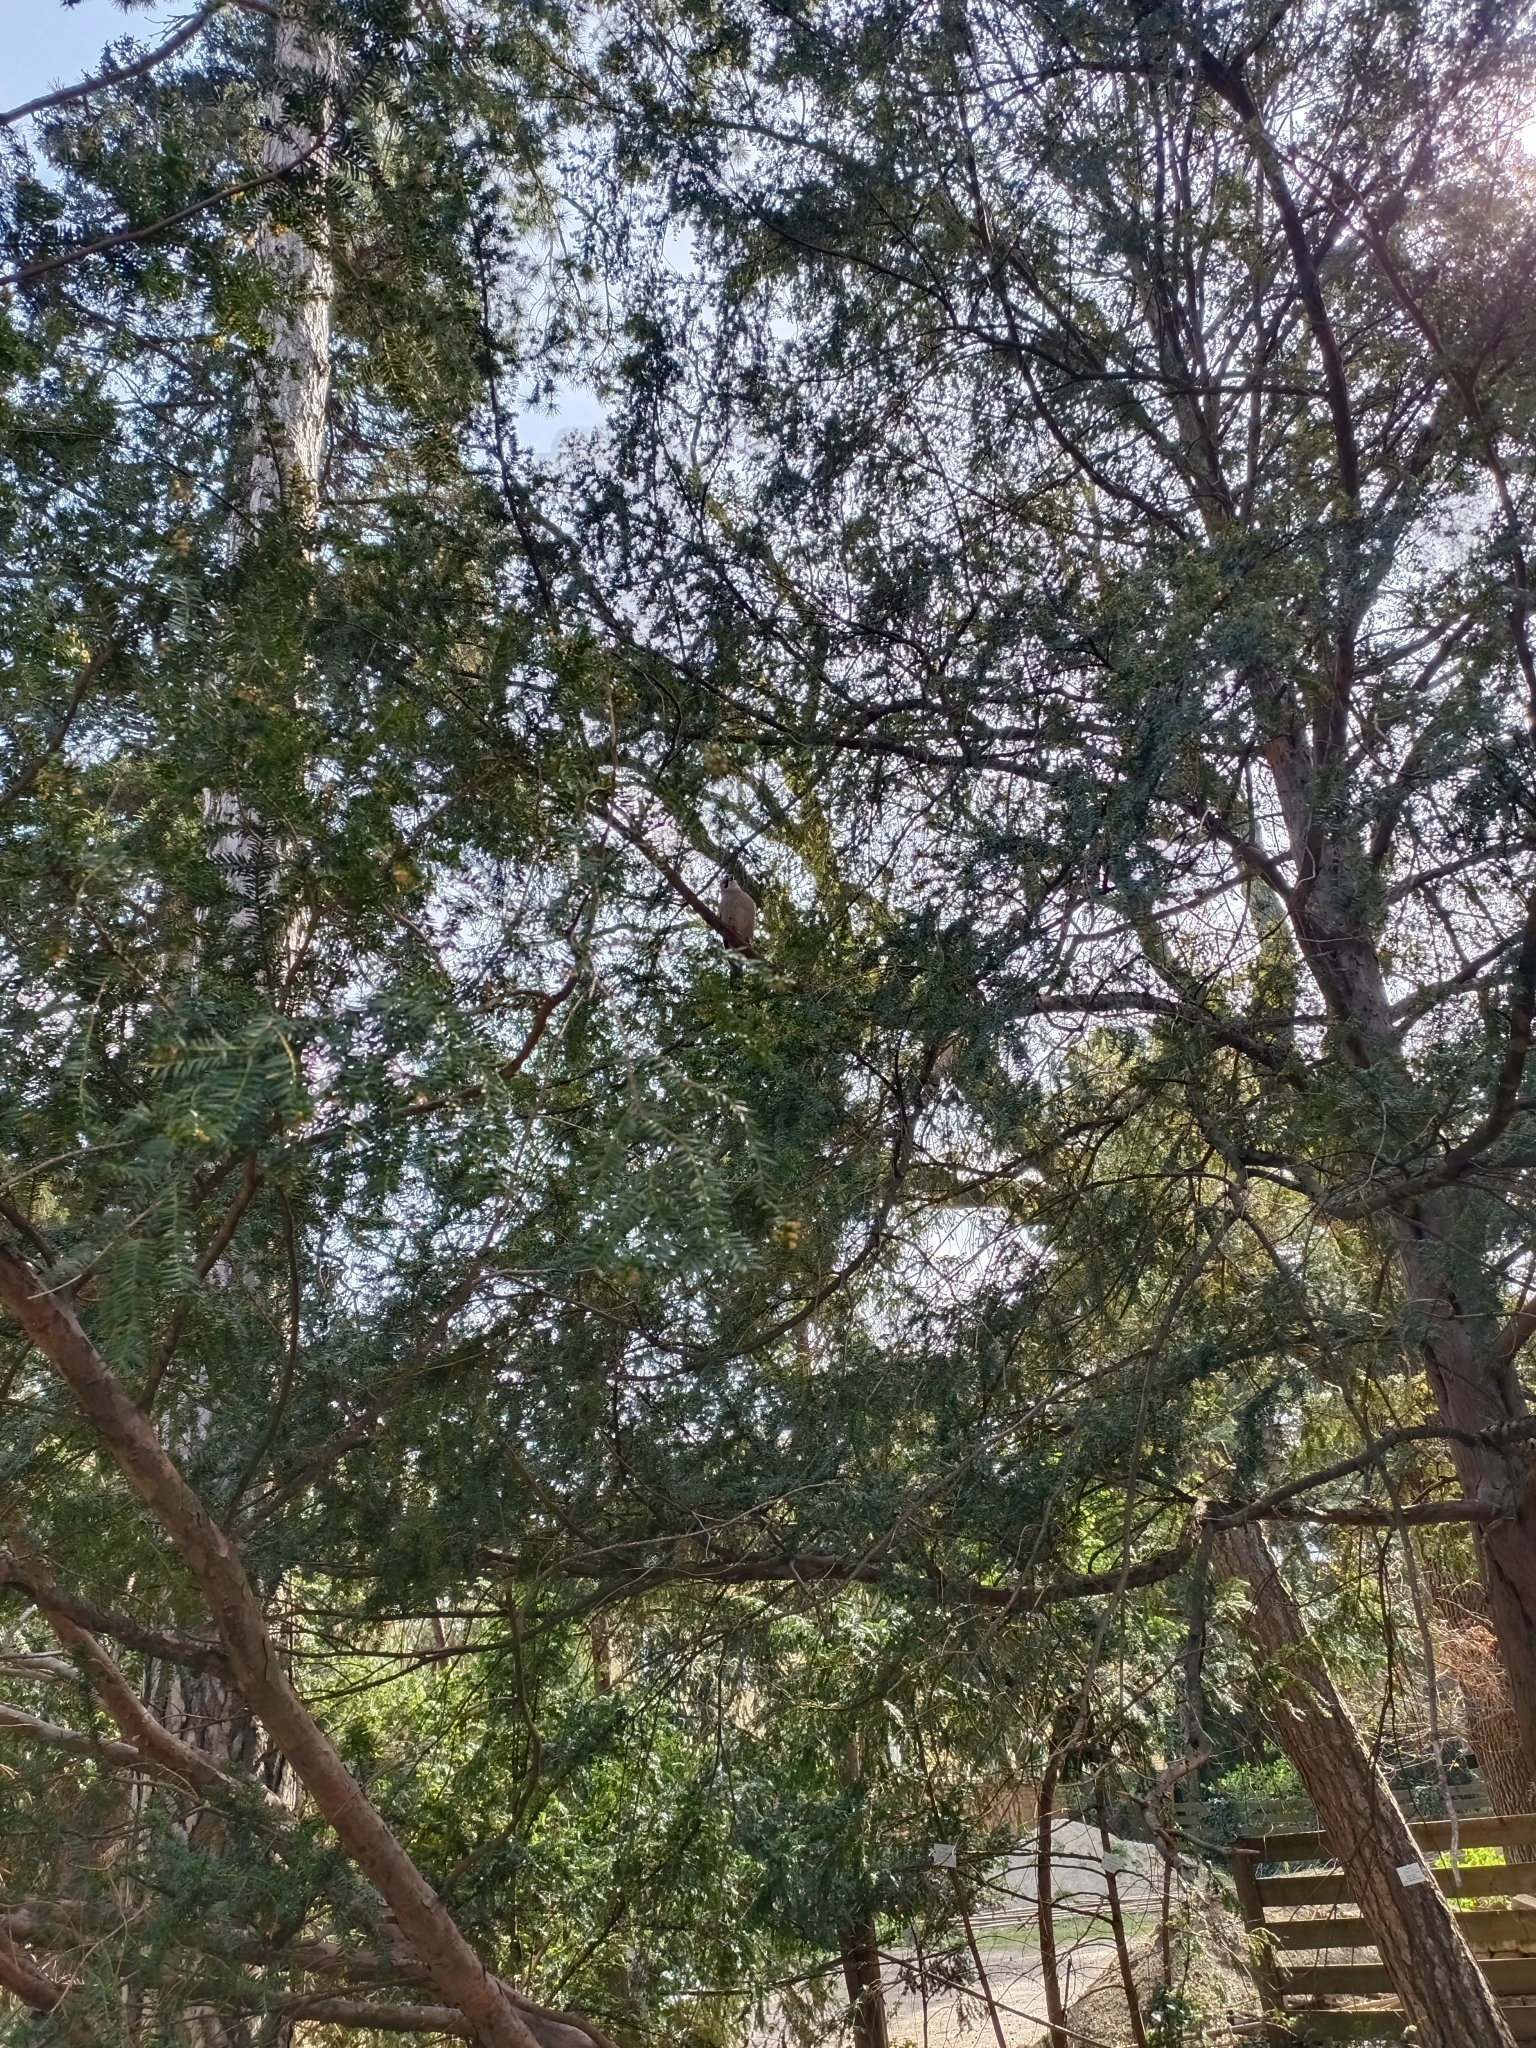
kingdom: Animalia
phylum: Chordata
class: Aves
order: Passeriformes
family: Corvidae
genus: Garrulus
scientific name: Garrulus glandarius
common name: Eurasian jay
